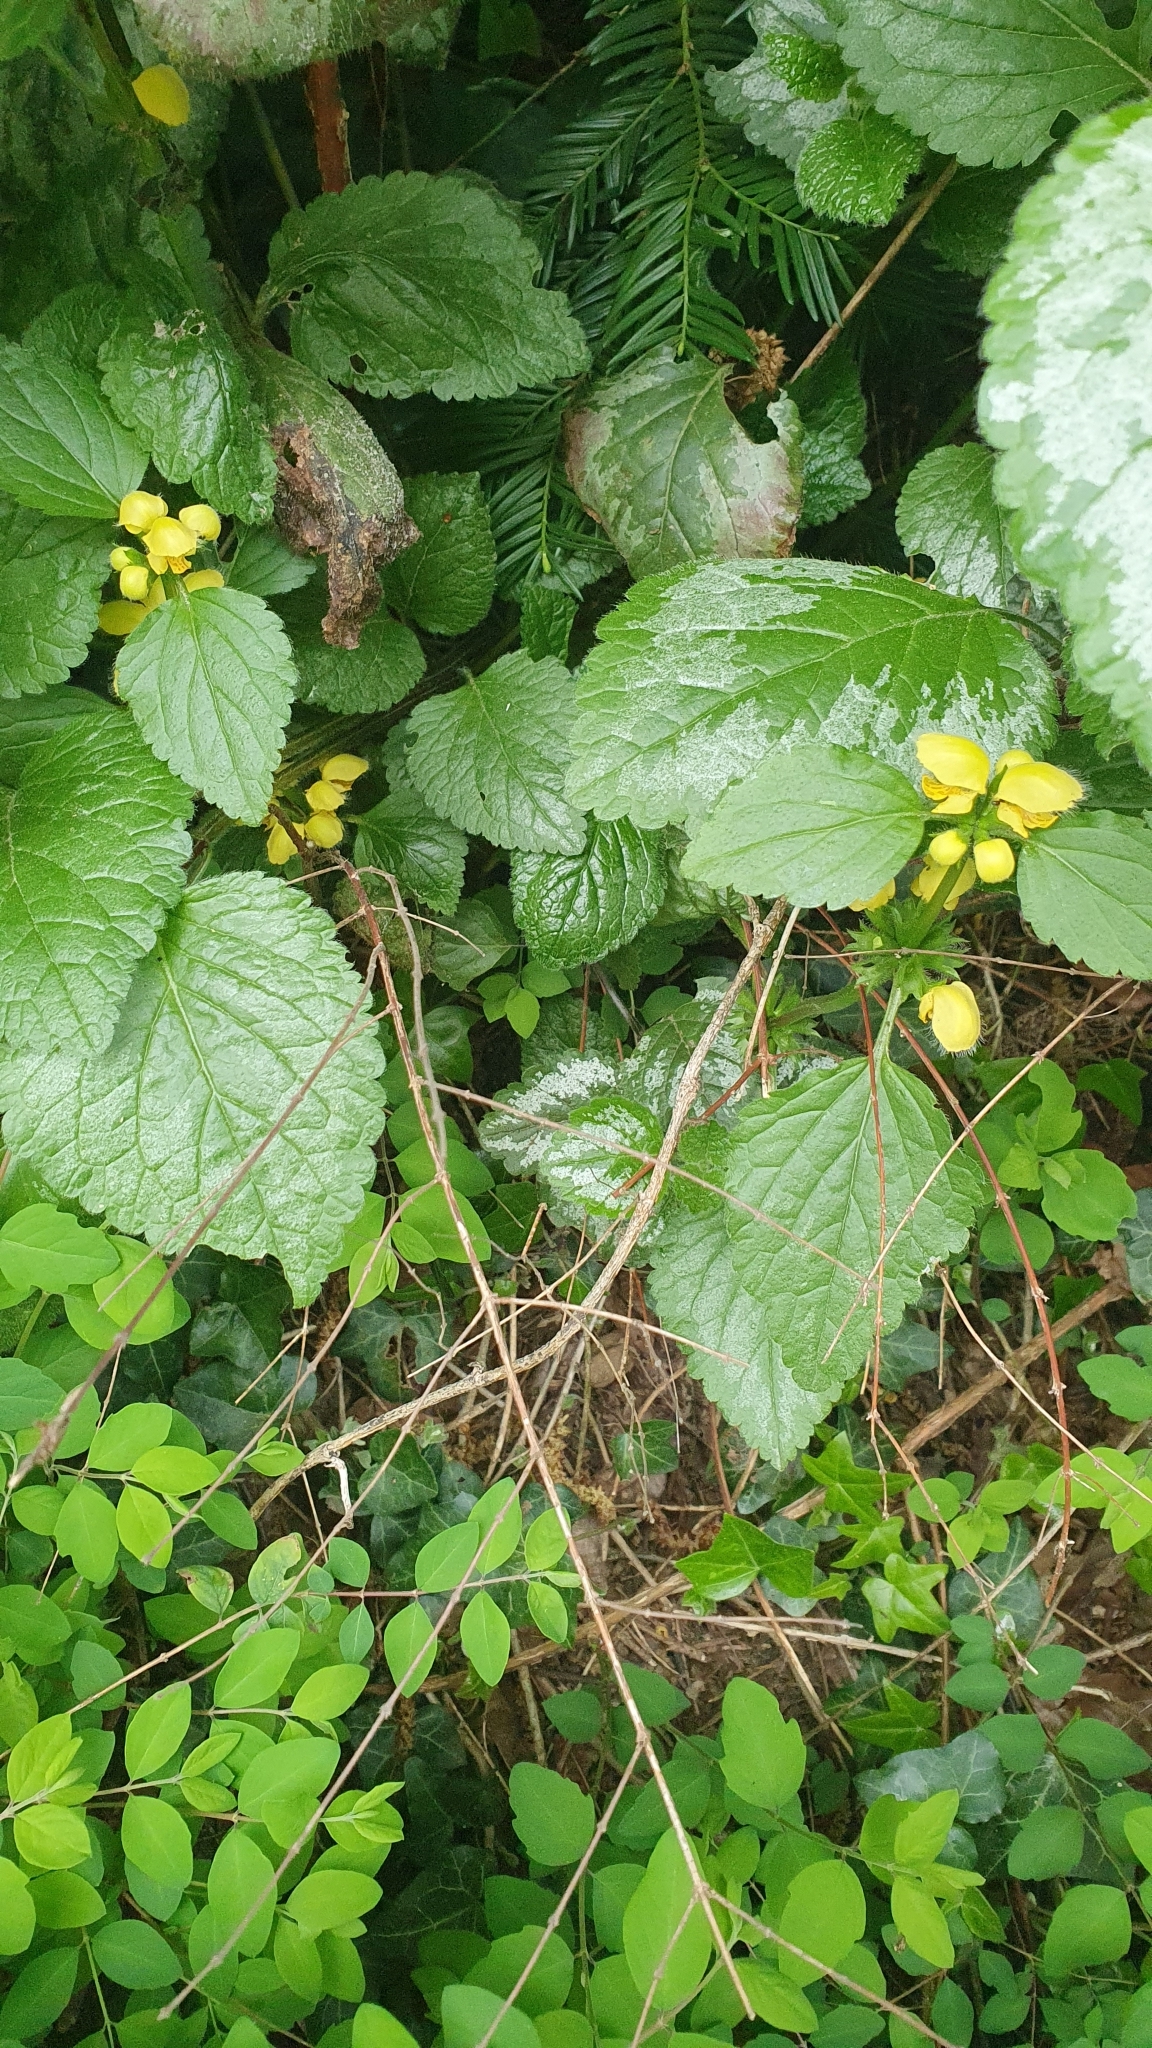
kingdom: Plantae
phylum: Tracheophyta
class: Magnoliopsida
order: Lamiales
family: Lamiaceae
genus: Lamium
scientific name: Lamium galeobdolon
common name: Yellow archangel
